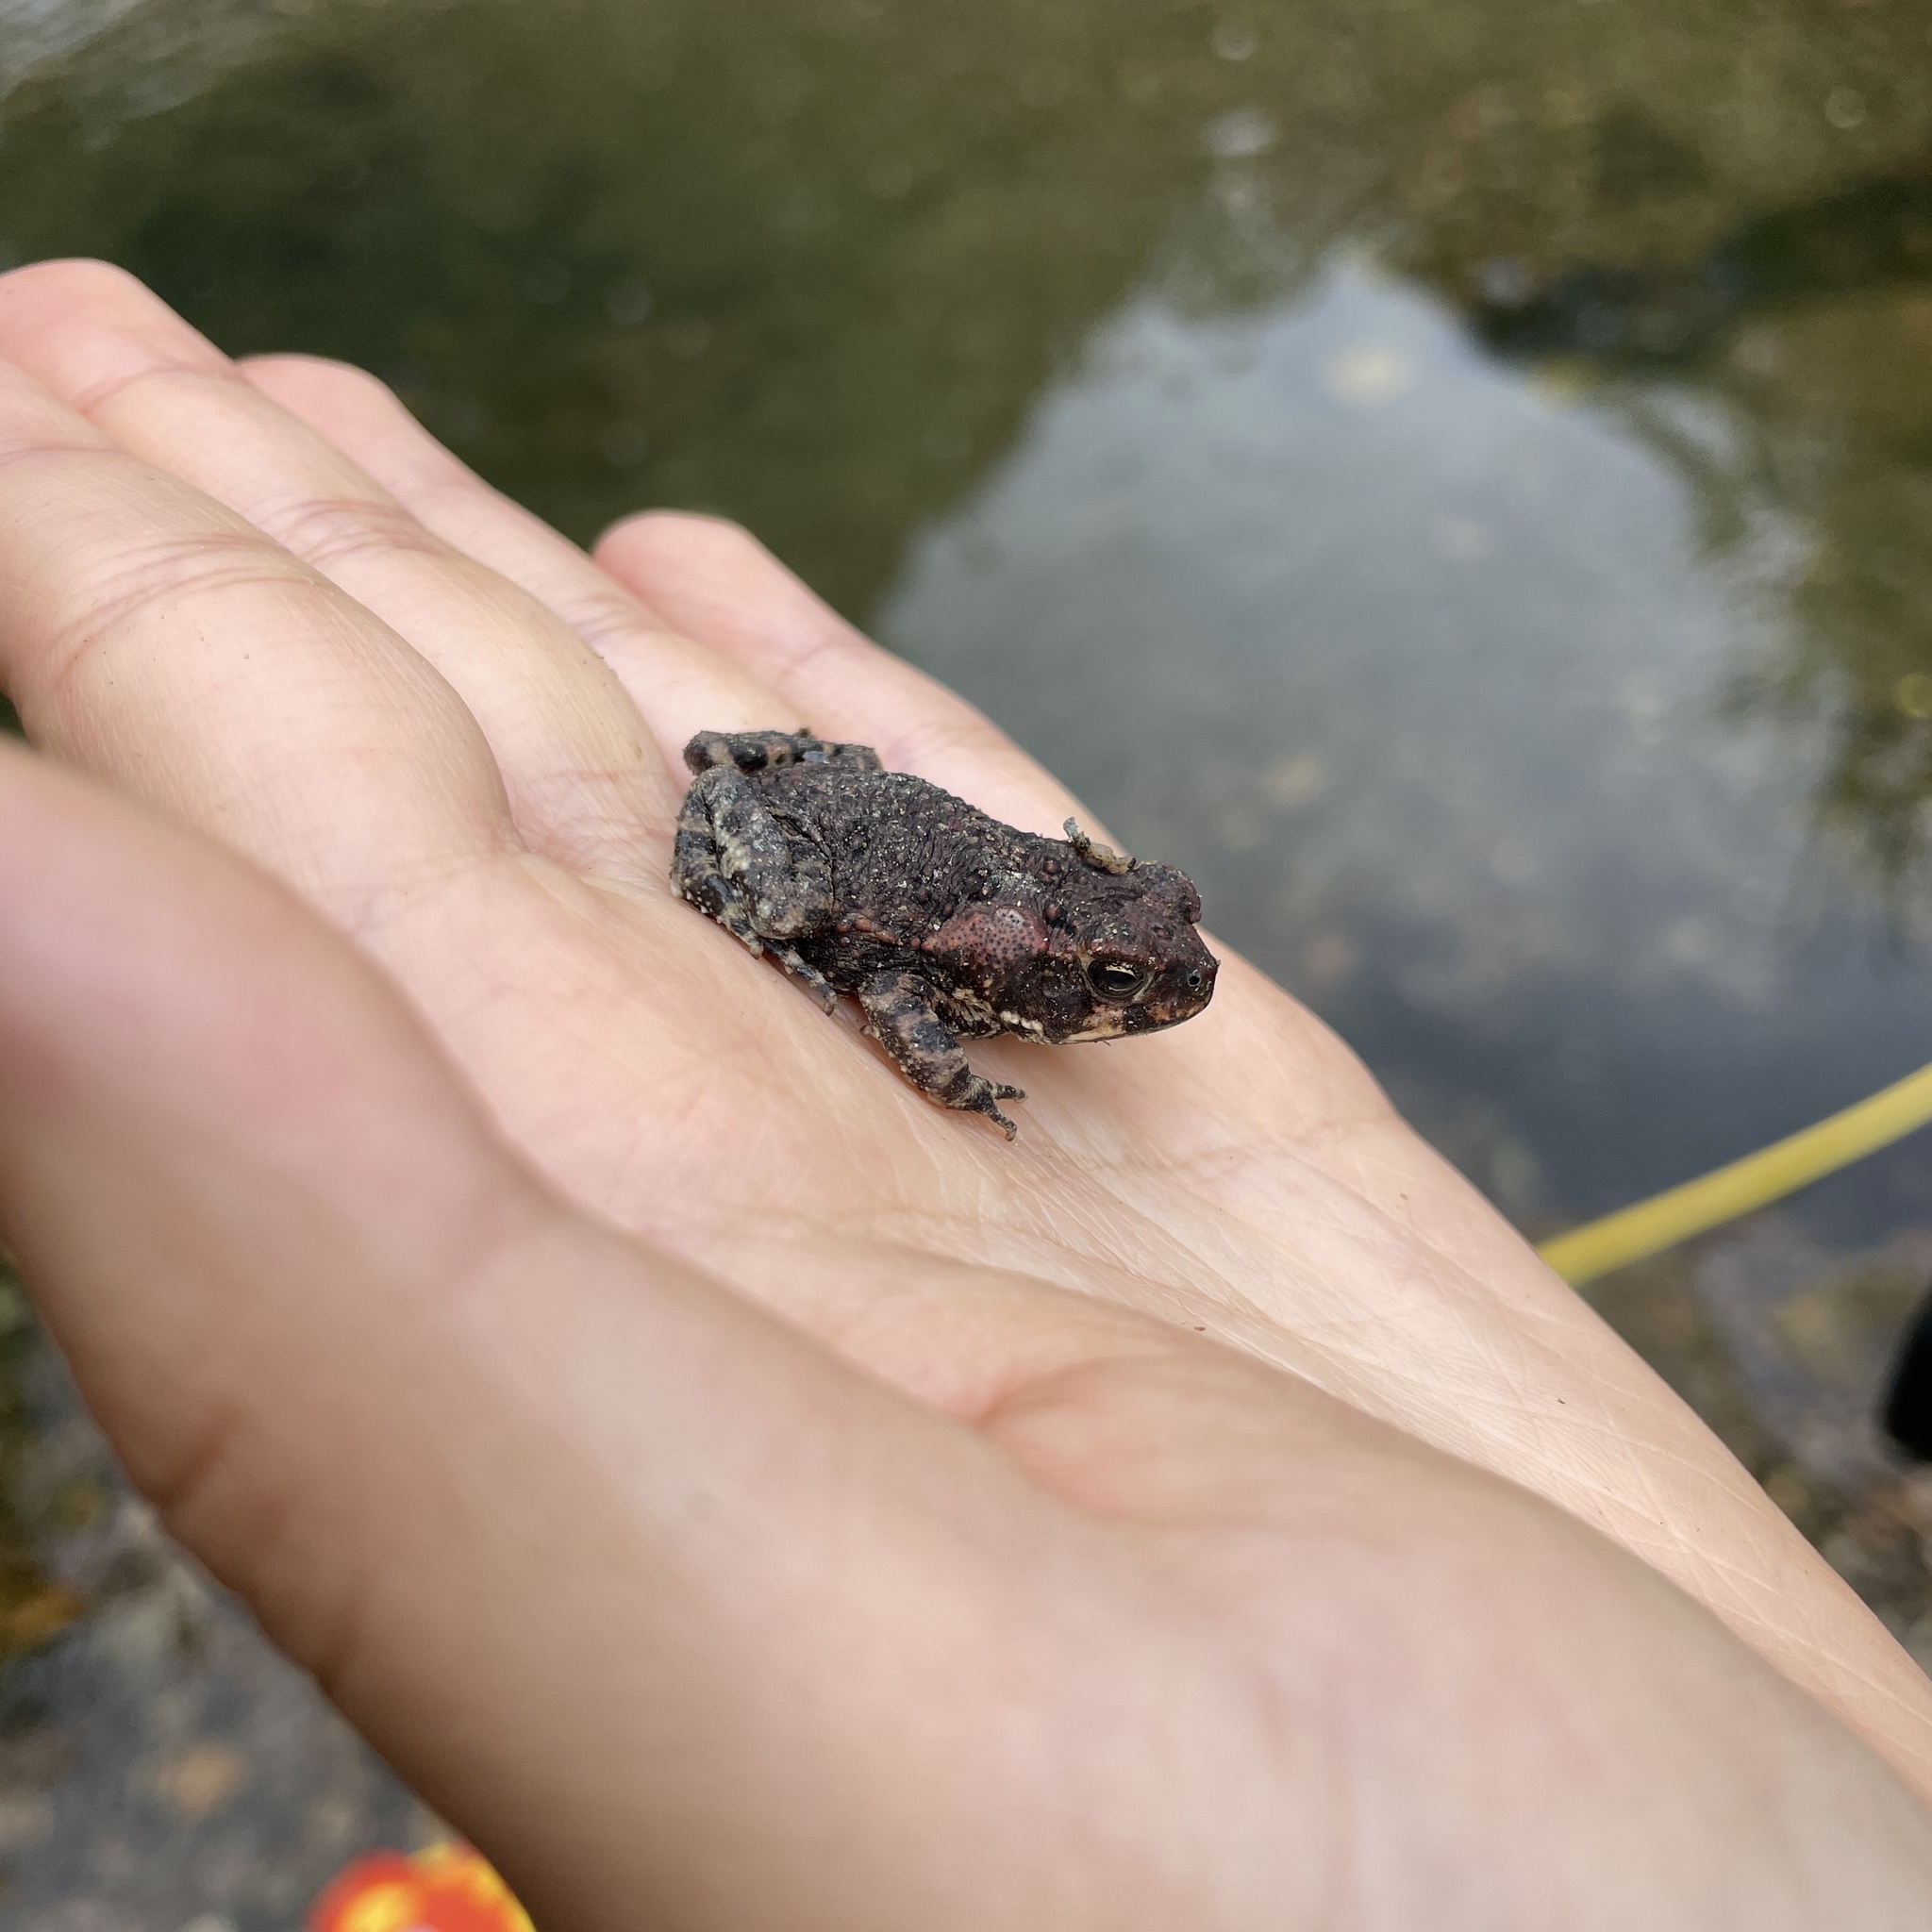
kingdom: Animalia
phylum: Chordata
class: Amphibia
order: Anura
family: Bufonidae
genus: Rhinella
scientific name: Rhinella marina
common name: Cane toad
